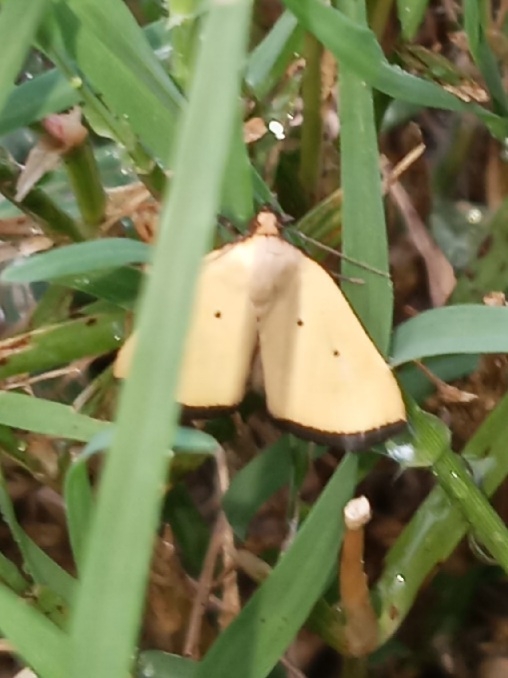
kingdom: Animalia
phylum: Arthropoda
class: Insecta
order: Lepidoptera
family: Noctuidae
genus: Marimatha
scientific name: Marimatha nigrofimbria
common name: Black-bordered lemon moth
